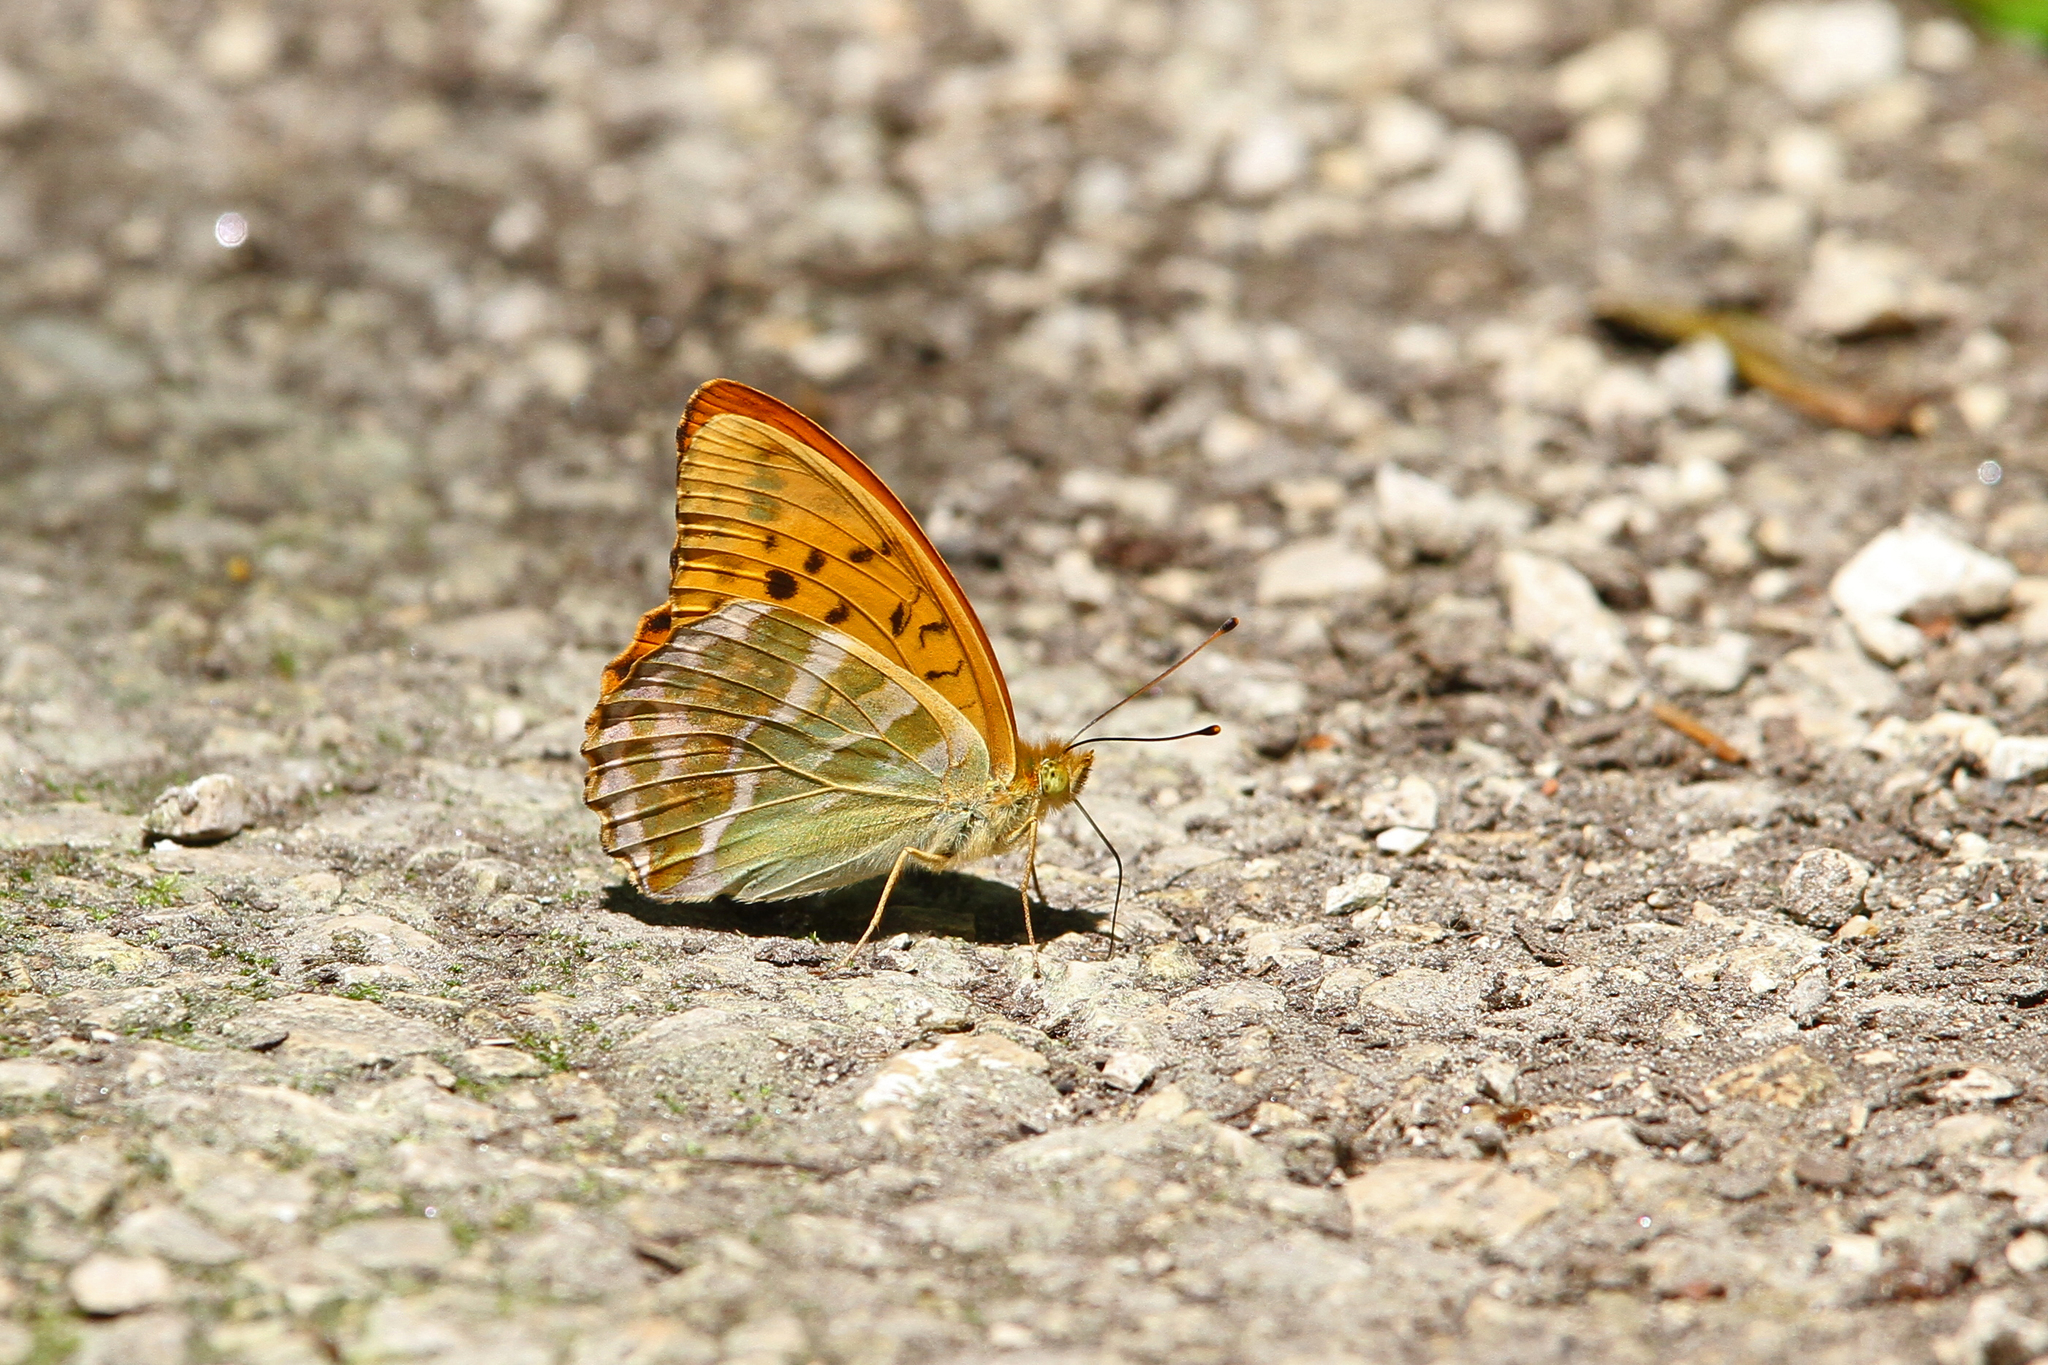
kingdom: Animalia
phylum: Arthropoda
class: Insecta
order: Lepidoptera
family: Nymphalidae
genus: Argynnis
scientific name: Argynnis paphia
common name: Silver-washed fritillary
